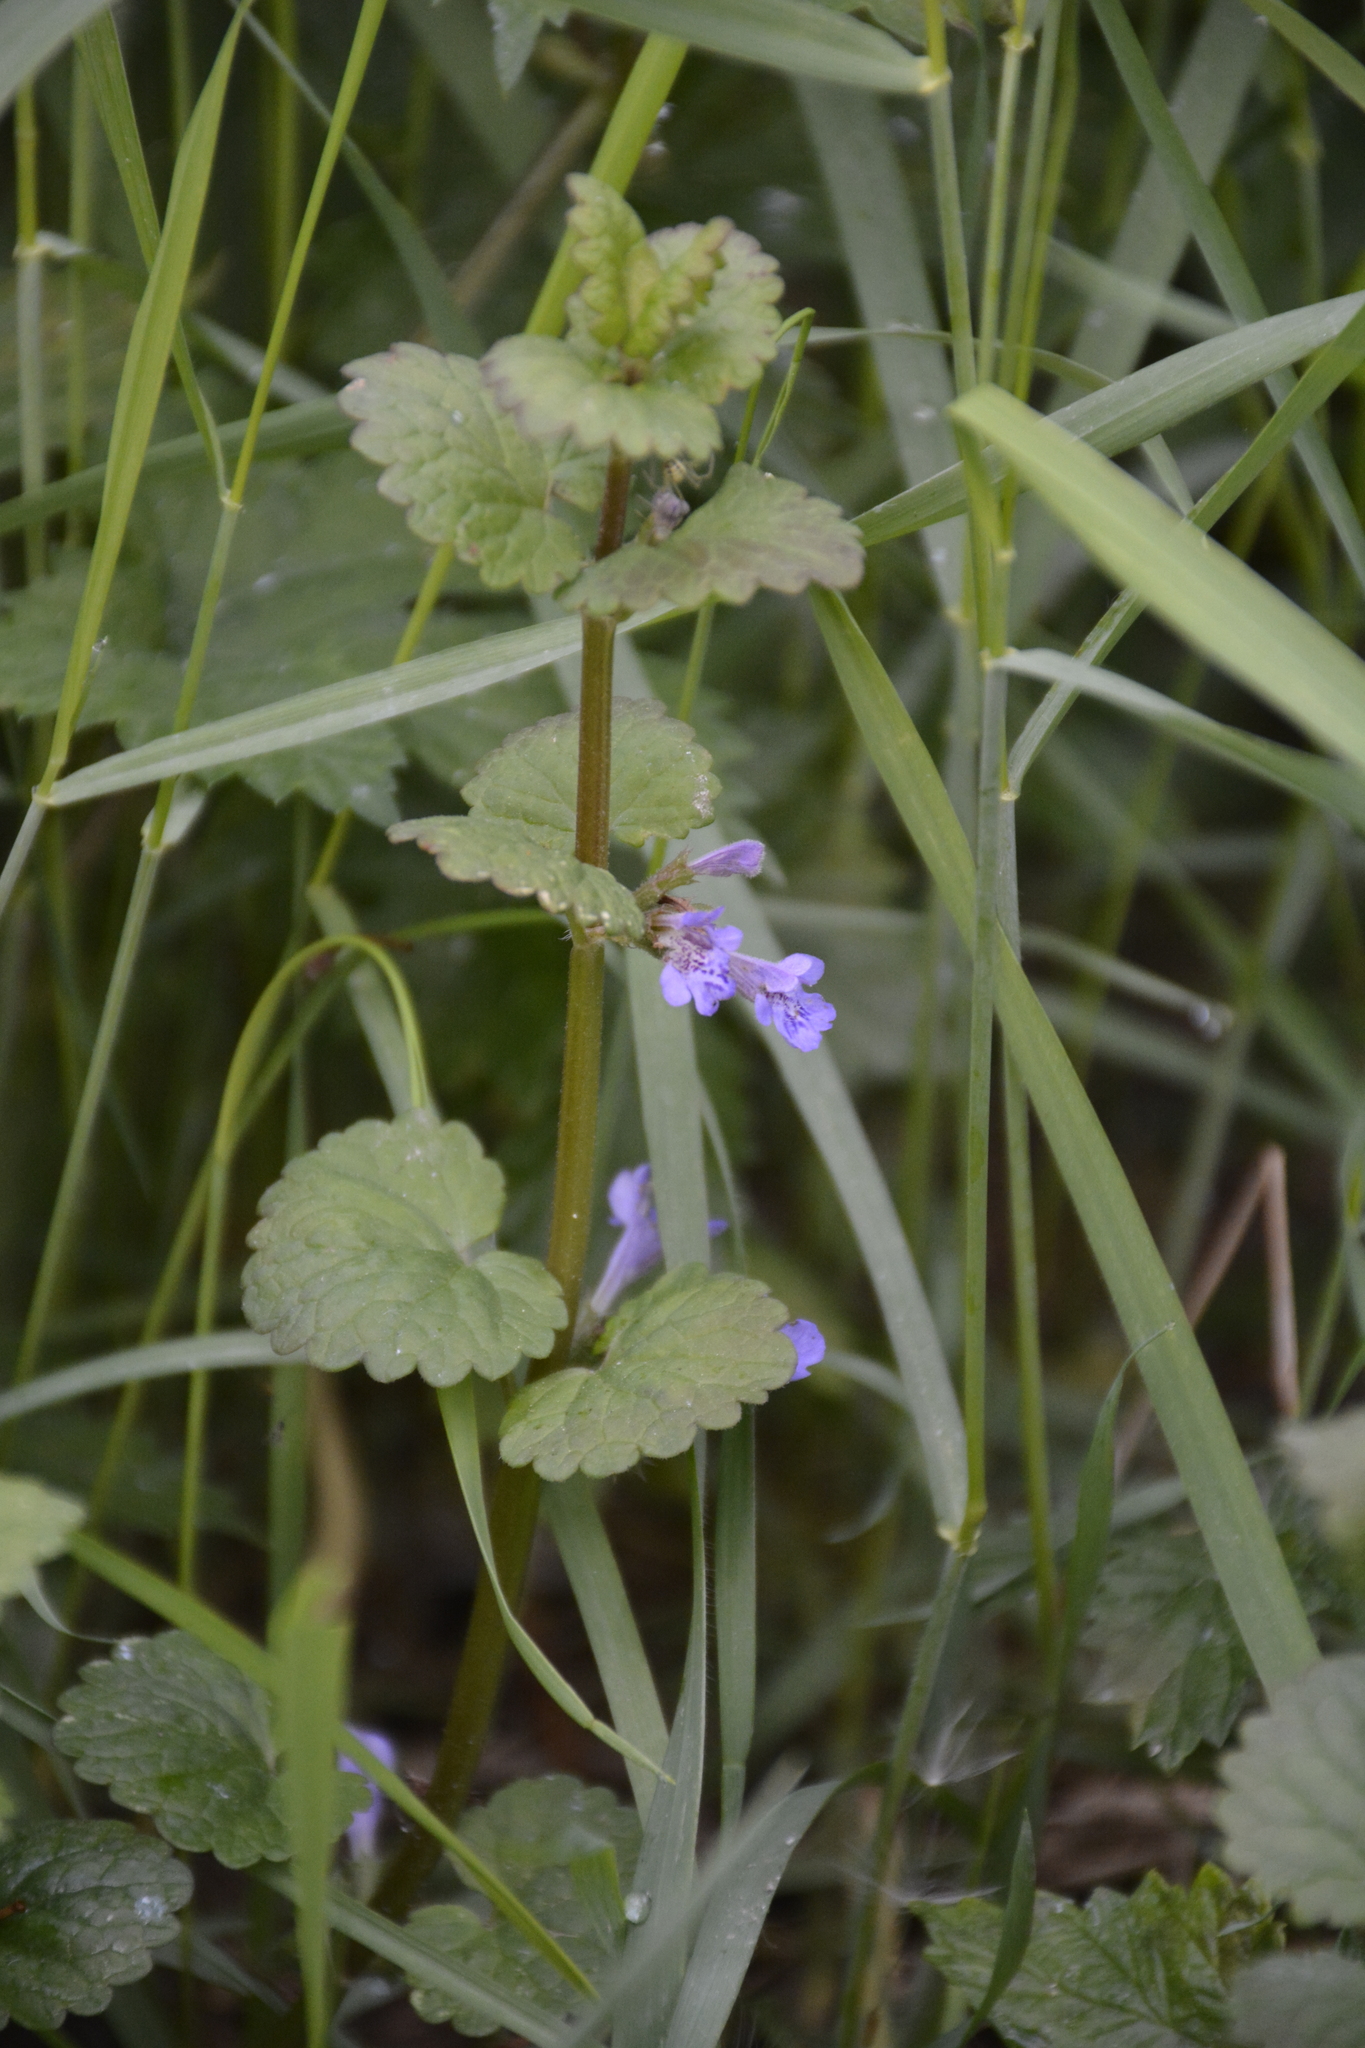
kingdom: Plantae
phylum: Tracheophyta
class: Magnoliopsida
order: Lamiales
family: Lamiaceae
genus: Glechoma
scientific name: Glechoma hederacea
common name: Ground ivy
